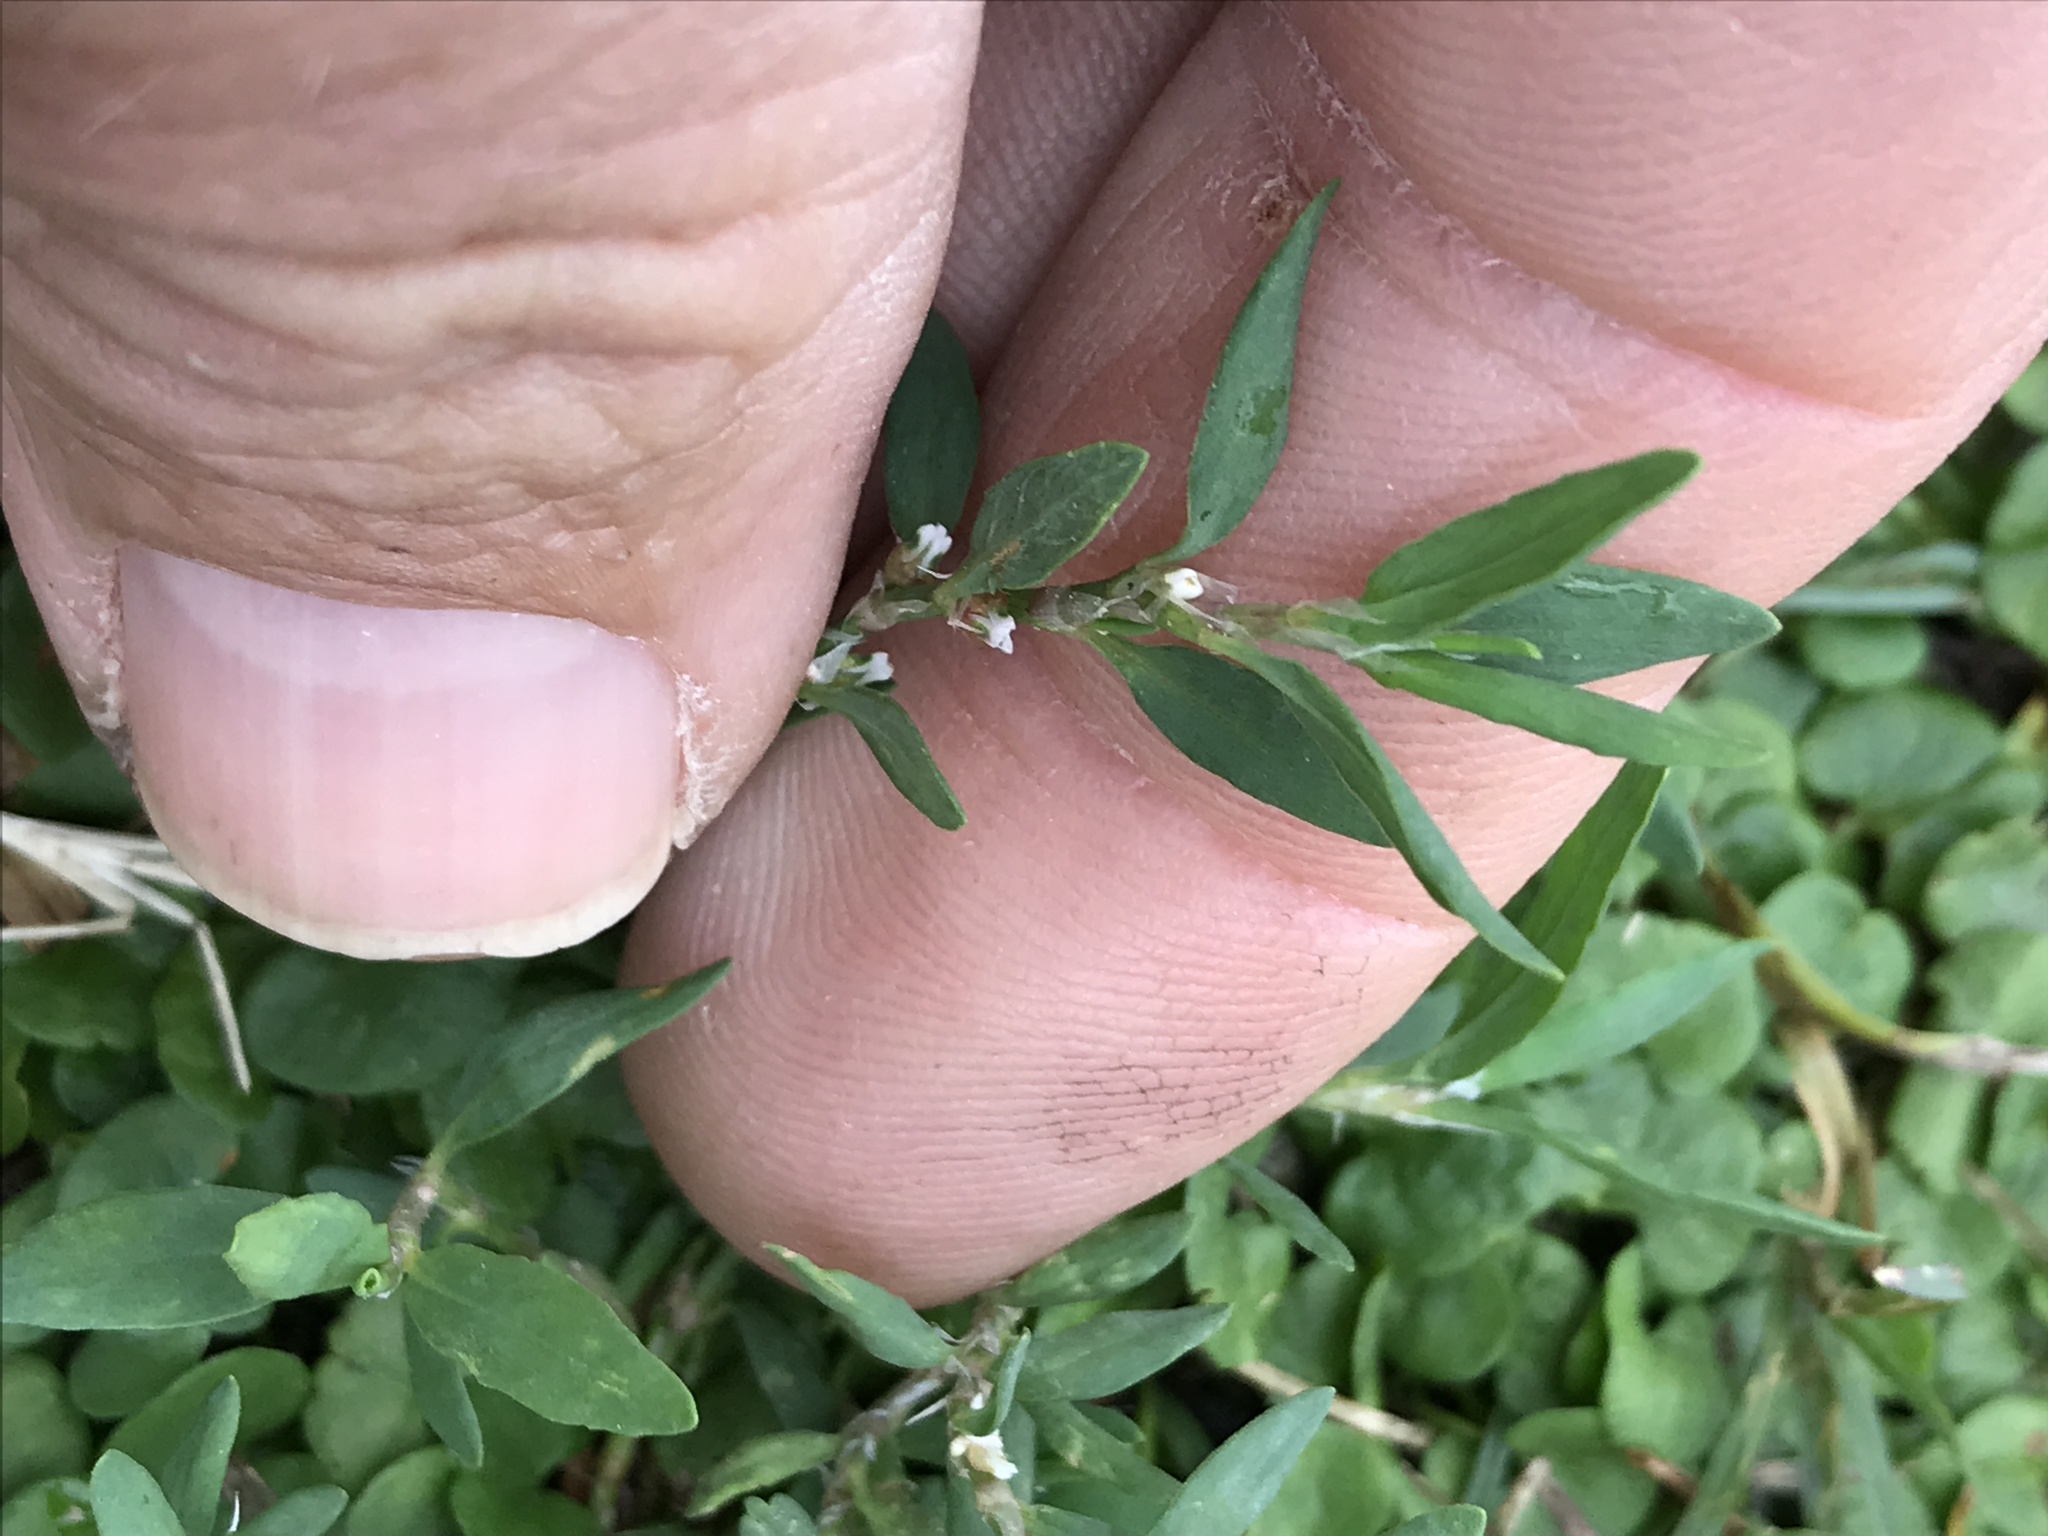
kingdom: Plantae
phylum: Tracheophyta
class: Magnoliopsida
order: Caryophyllales
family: Polygonaceae
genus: Polygonum
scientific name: Polygonum aviculare
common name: Prostrate knotweed
